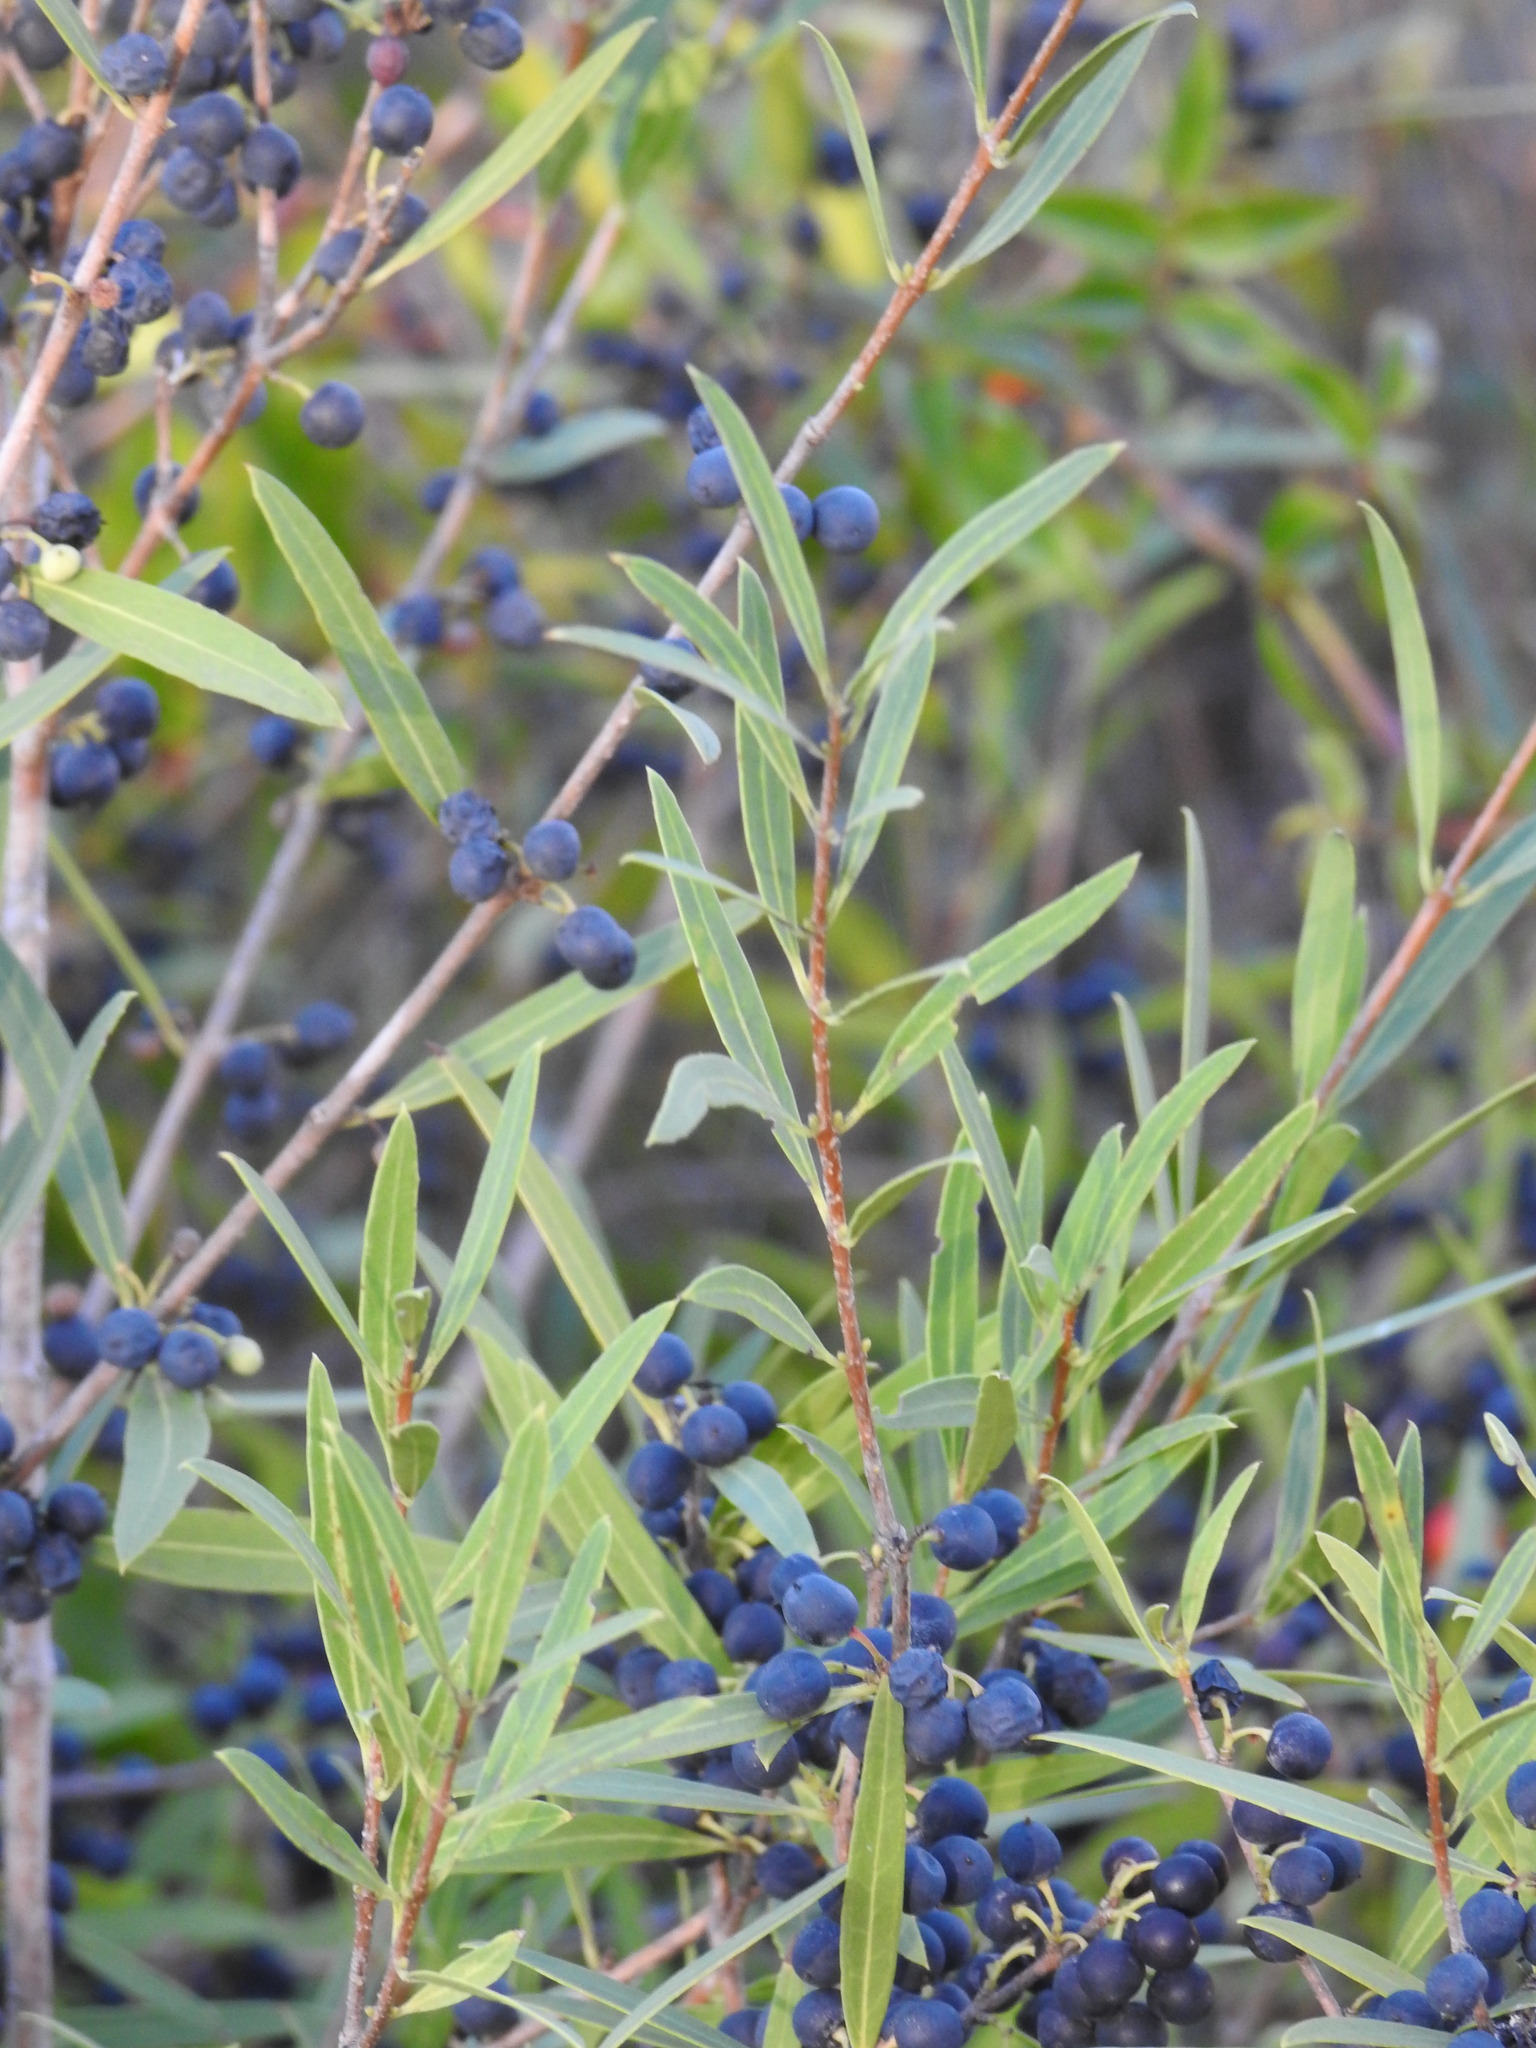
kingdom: Plantae
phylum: Tracheophyta
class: Magnoliopsida
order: Lamiales
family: Oleaceae
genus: Phillyrea
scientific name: Phillyrea angustifolia
